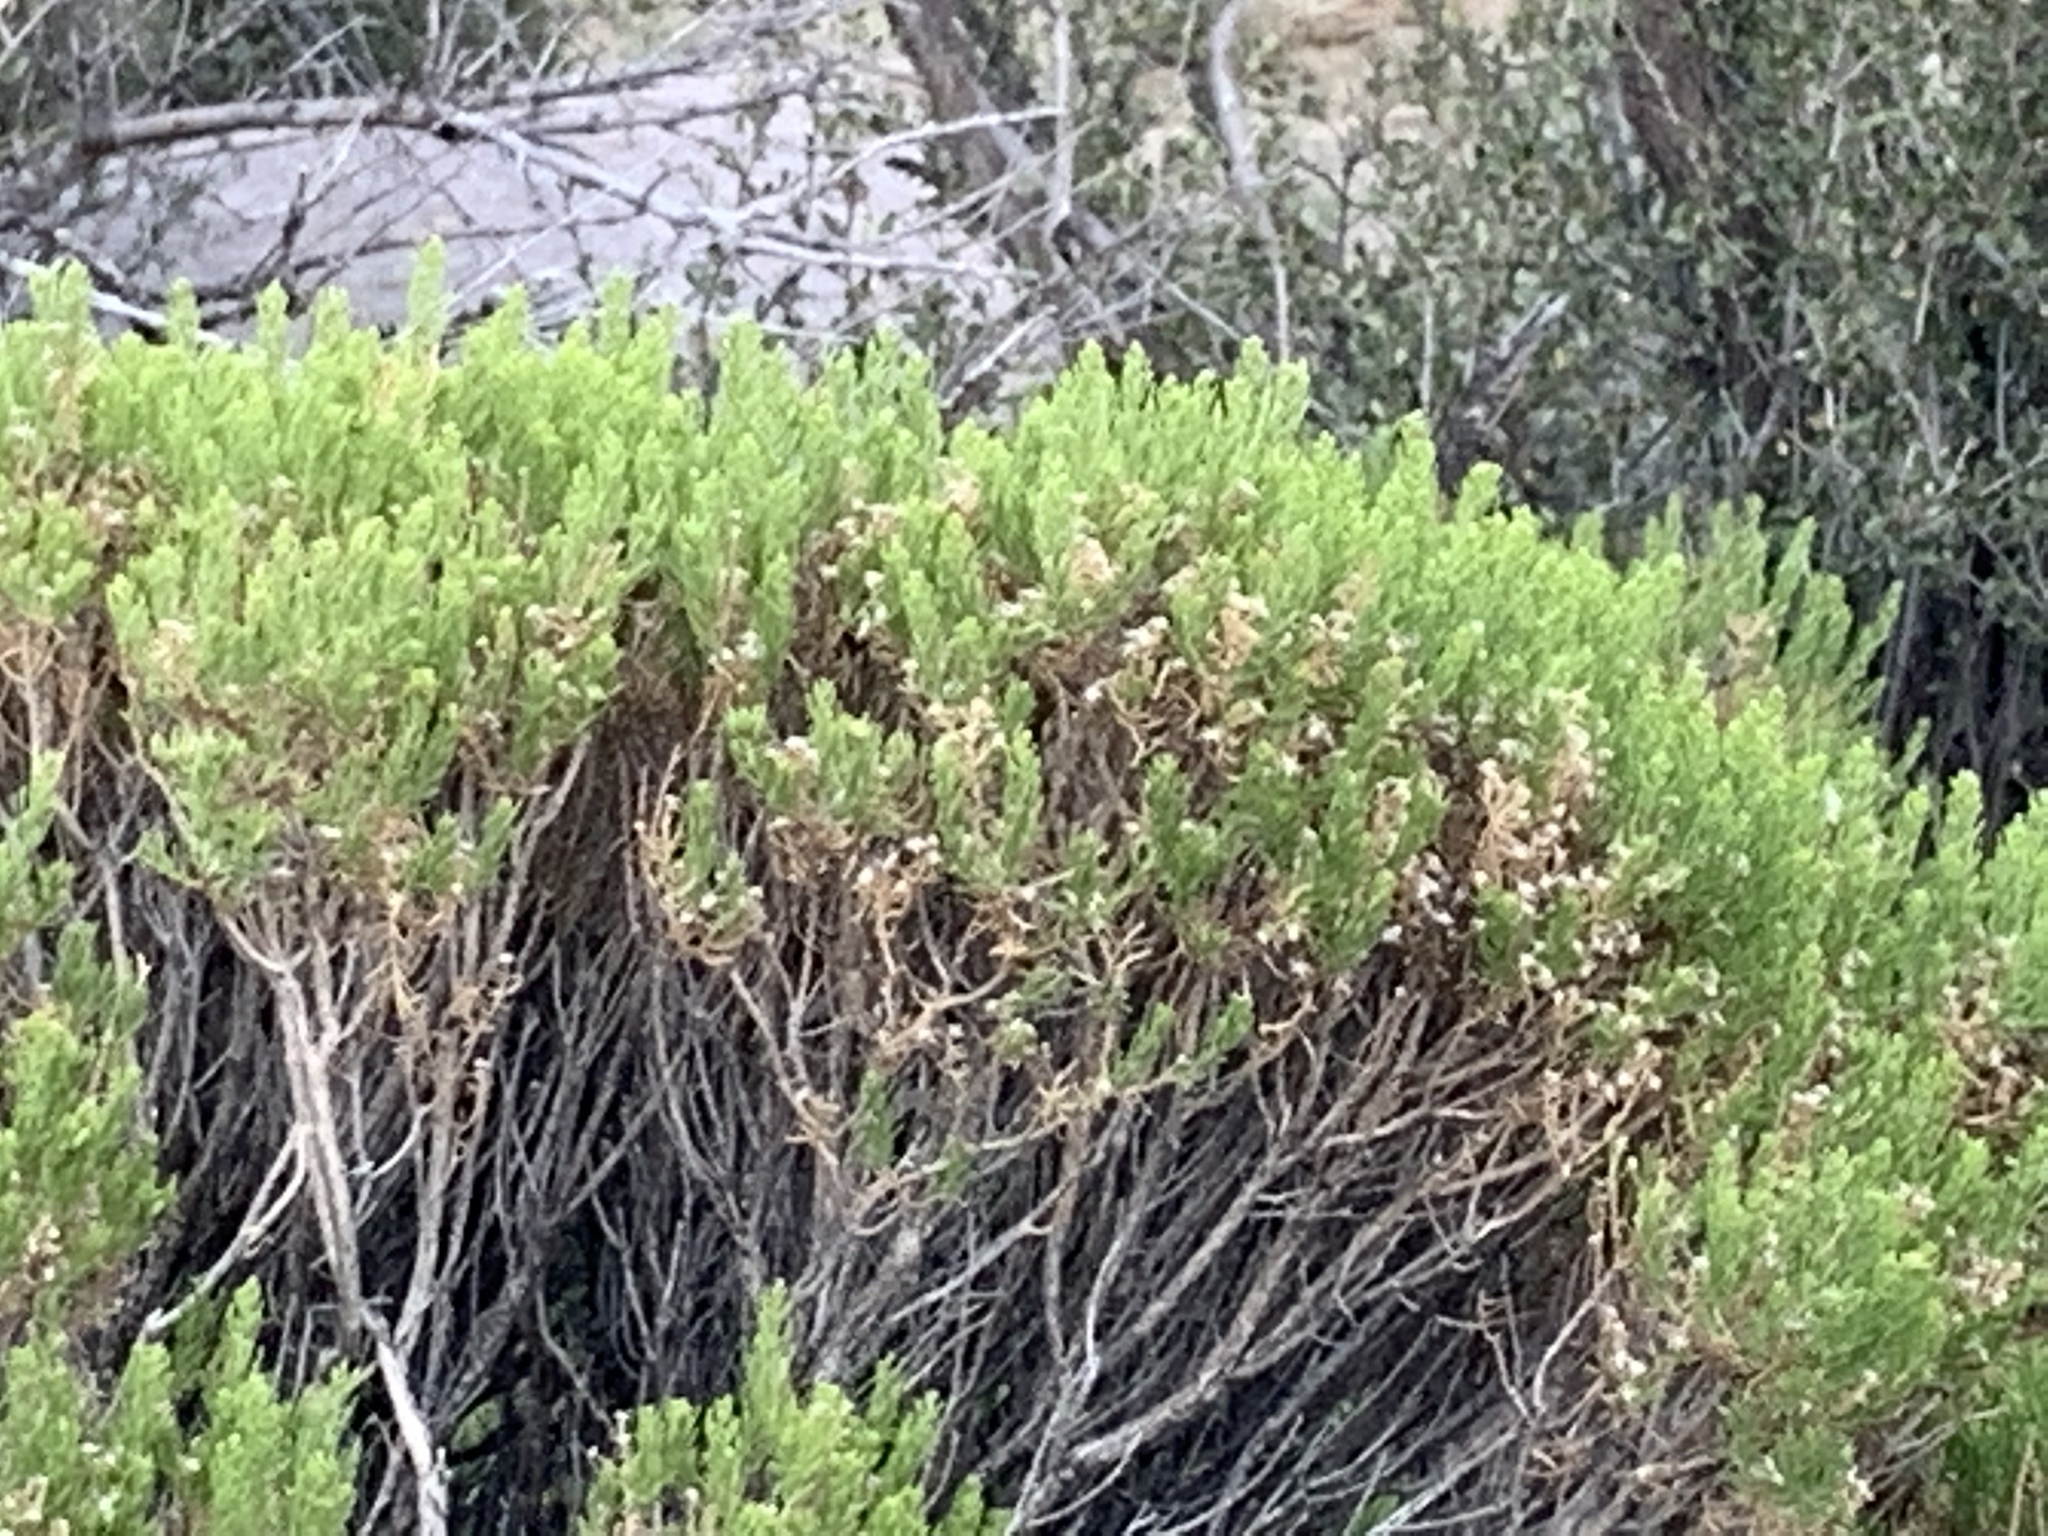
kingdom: Plantae
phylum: Tracheophyta
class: Magnoliopsida
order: Asterales
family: Asteraceae
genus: Ericameria
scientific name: Ericameria laricifolia
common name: Turpentine-bush
